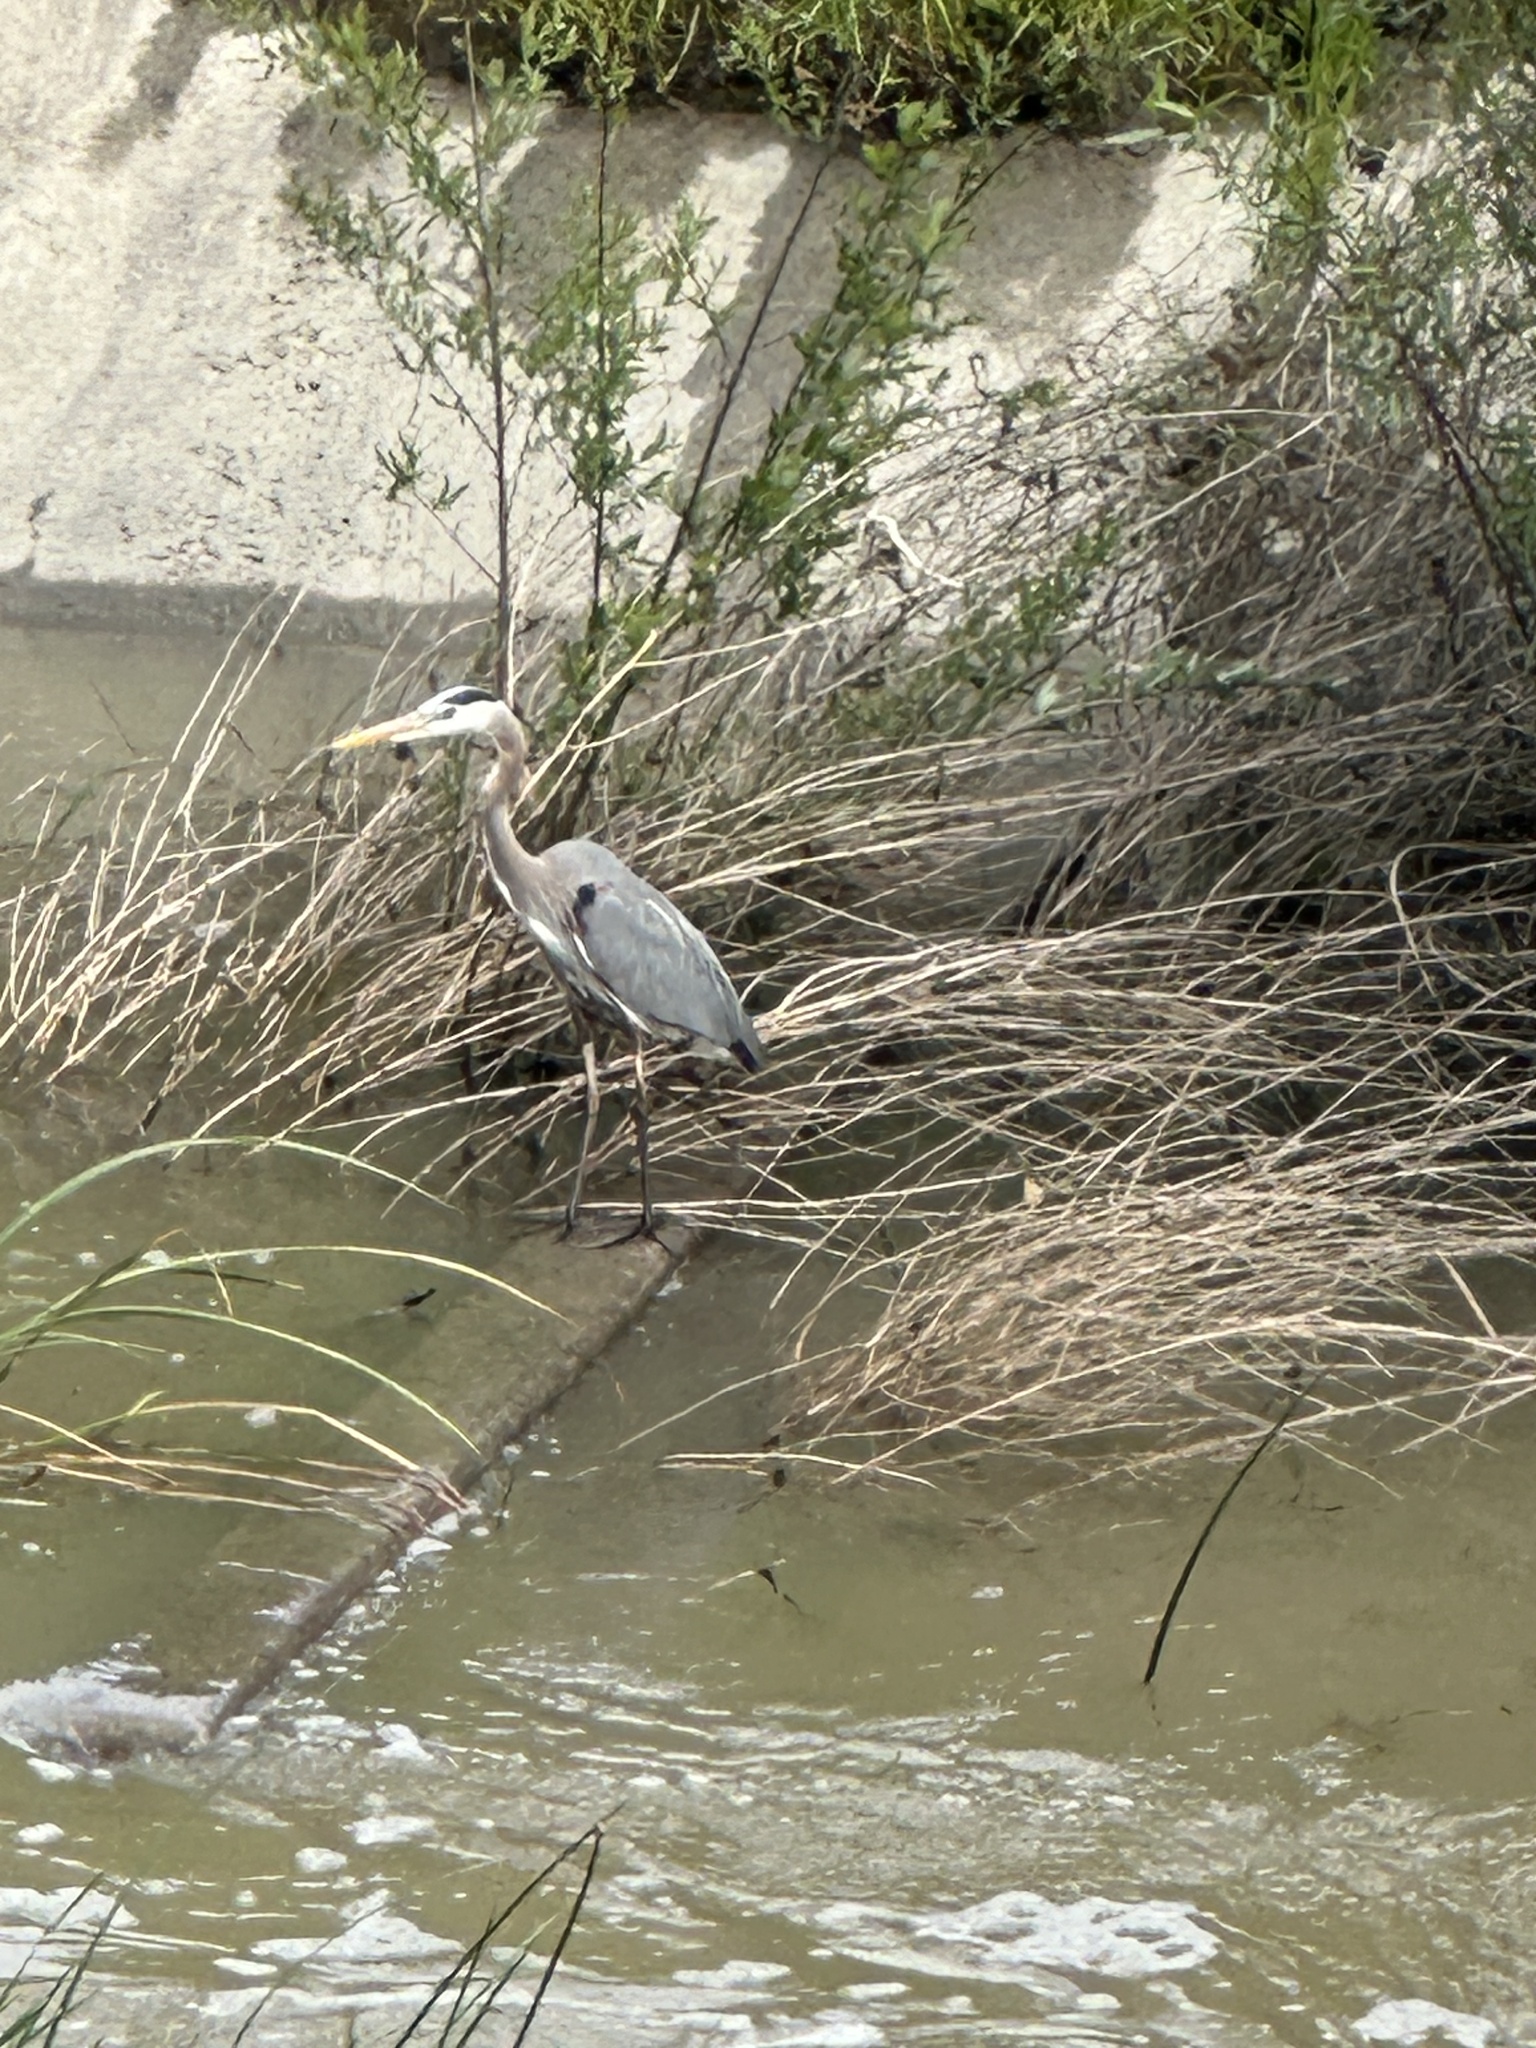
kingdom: Animalia
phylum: Chordata
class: Aves
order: Pelecaniformes
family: Ardeidae
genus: Ardea
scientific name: Ardea herodias
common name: Great blue heron
